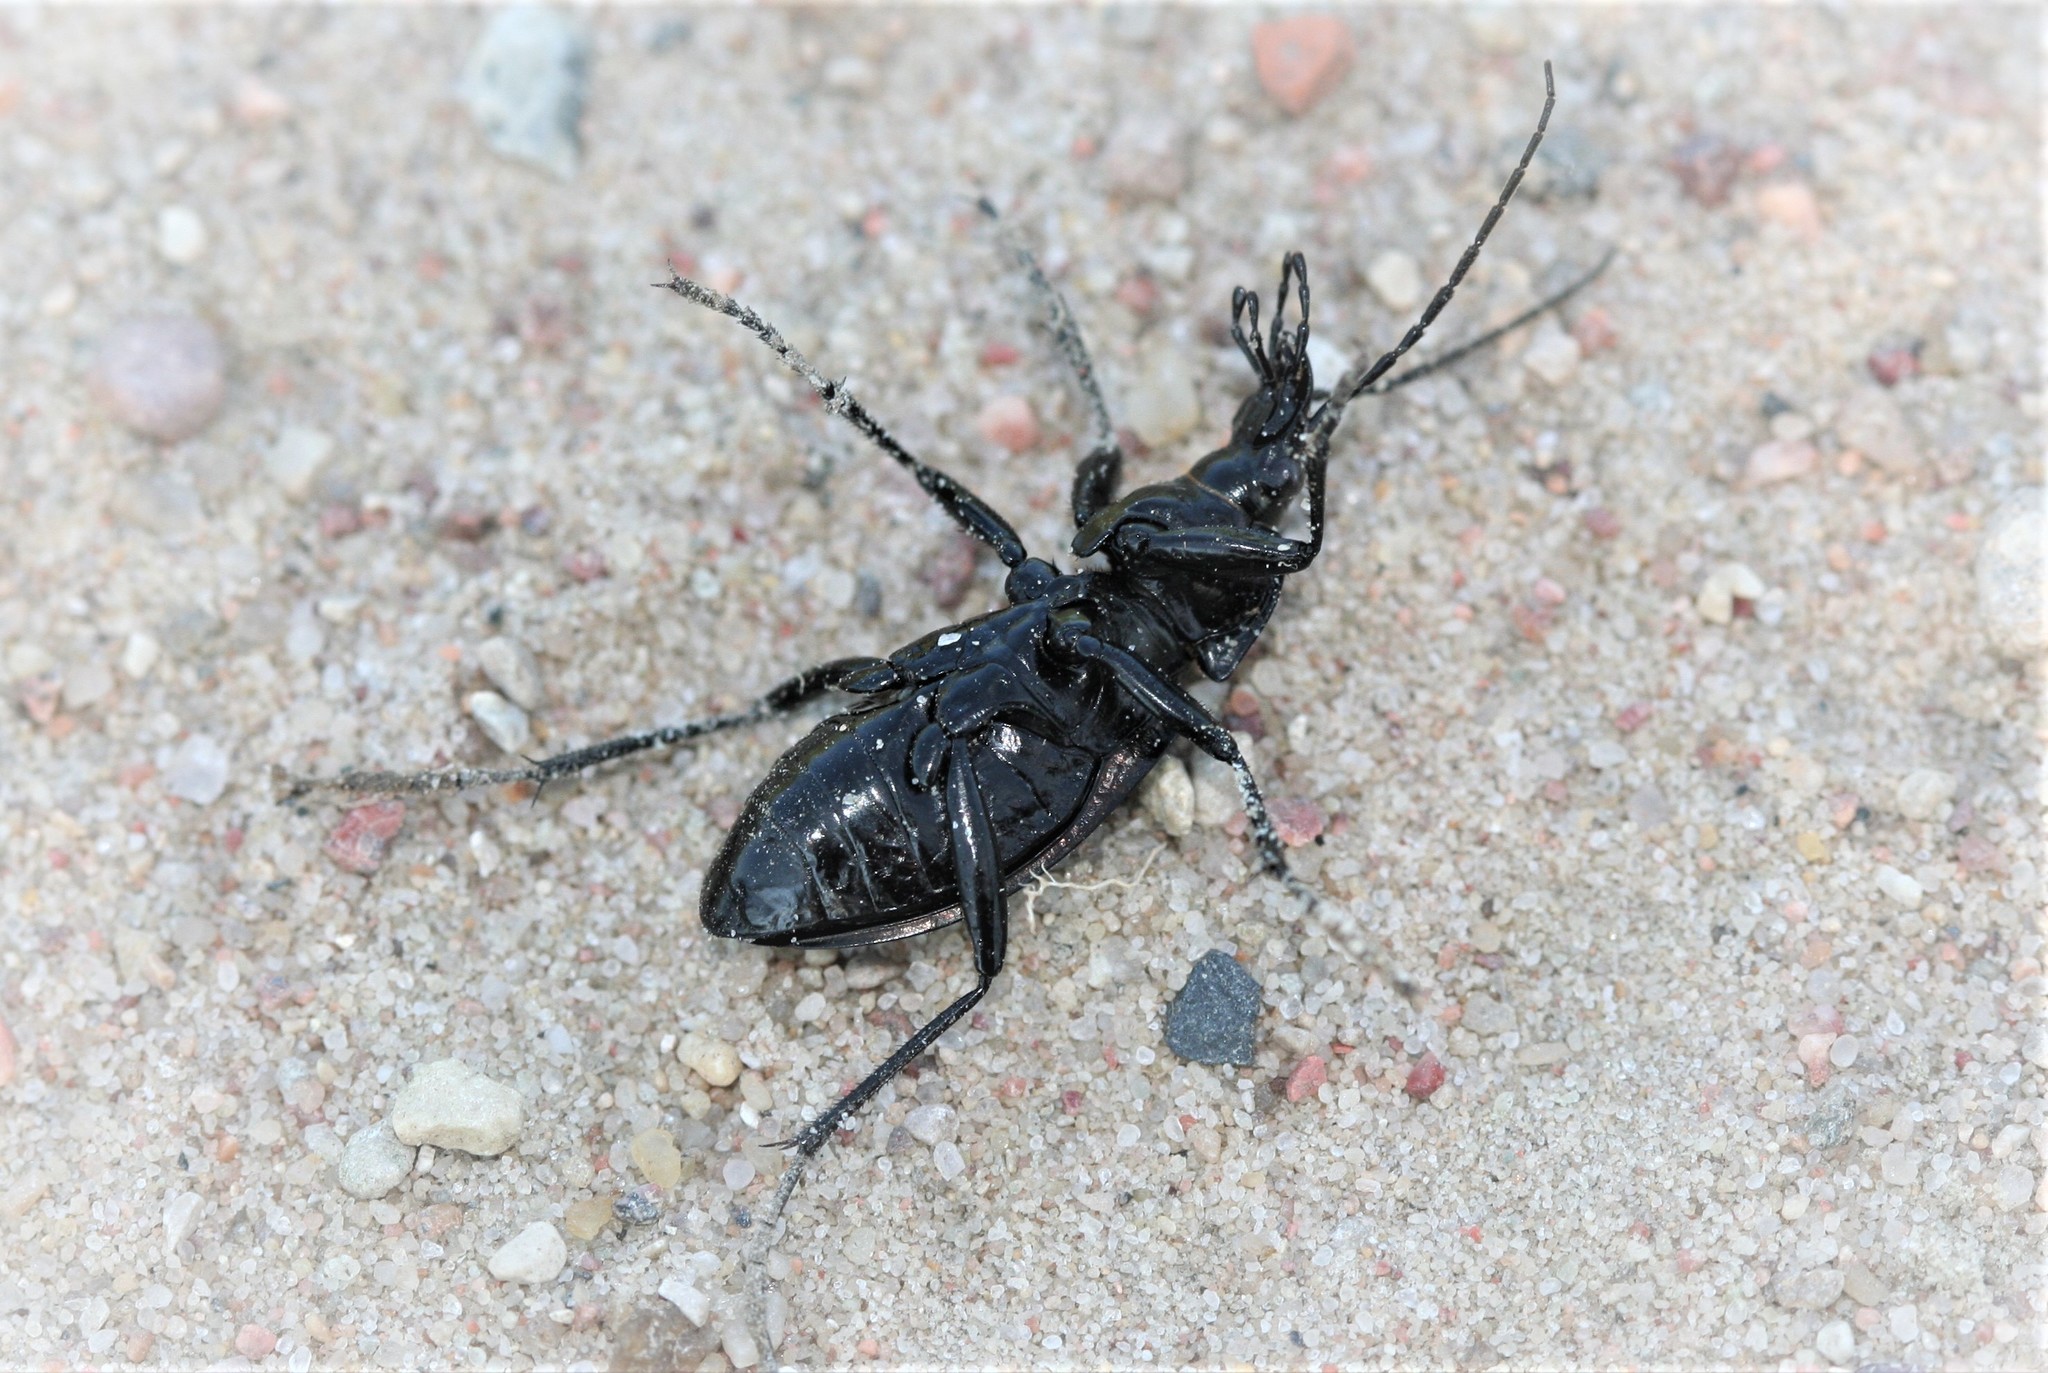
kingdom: Animalia
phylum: Arthropoda
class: Insecta
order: Coleoptera
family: Carabidae
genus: Carabus
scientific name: Carabus granulatus
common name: Granulate ground beetle
